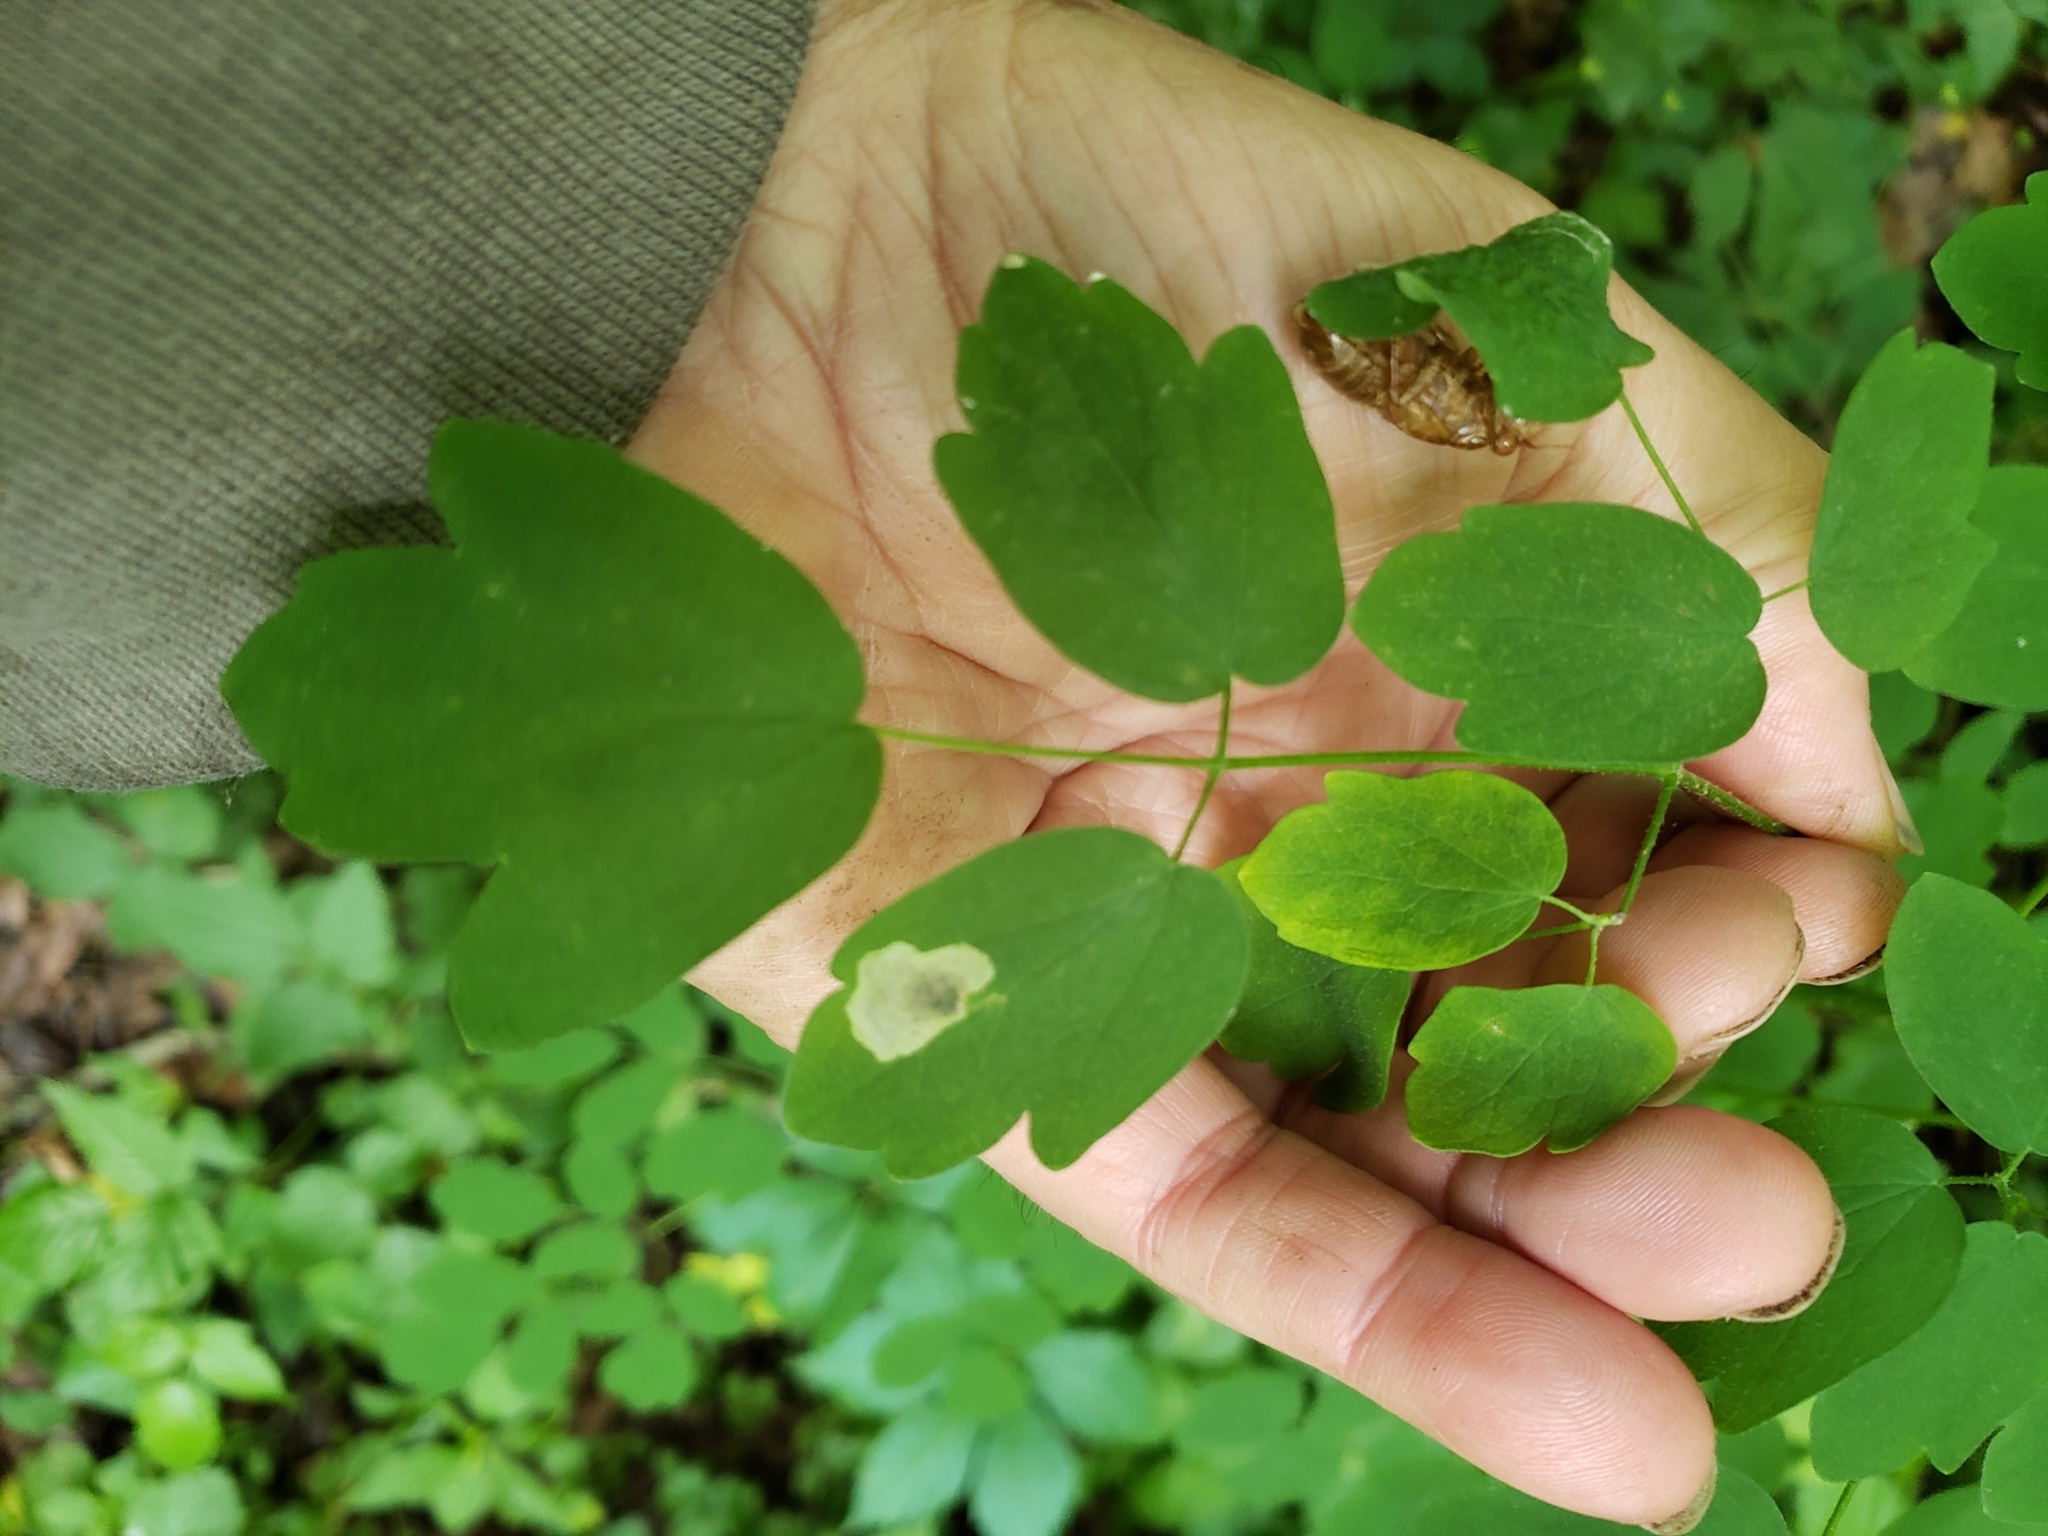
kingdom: Animalia
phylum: Arthropoda
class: Insecta
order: Diptera
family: Agromyzidae
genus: Phytomyza
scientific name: Phytomyza plumiseta
